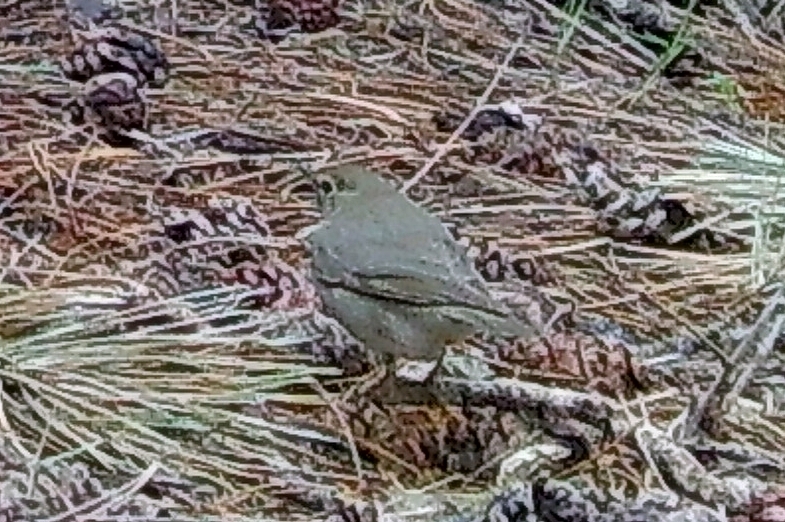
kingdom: Animalia
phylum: Chordata
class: Aves
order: Passeriformes
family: Turdidae
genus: Catharus
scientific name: Catharus ustulatus
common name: Swainson's thrush
